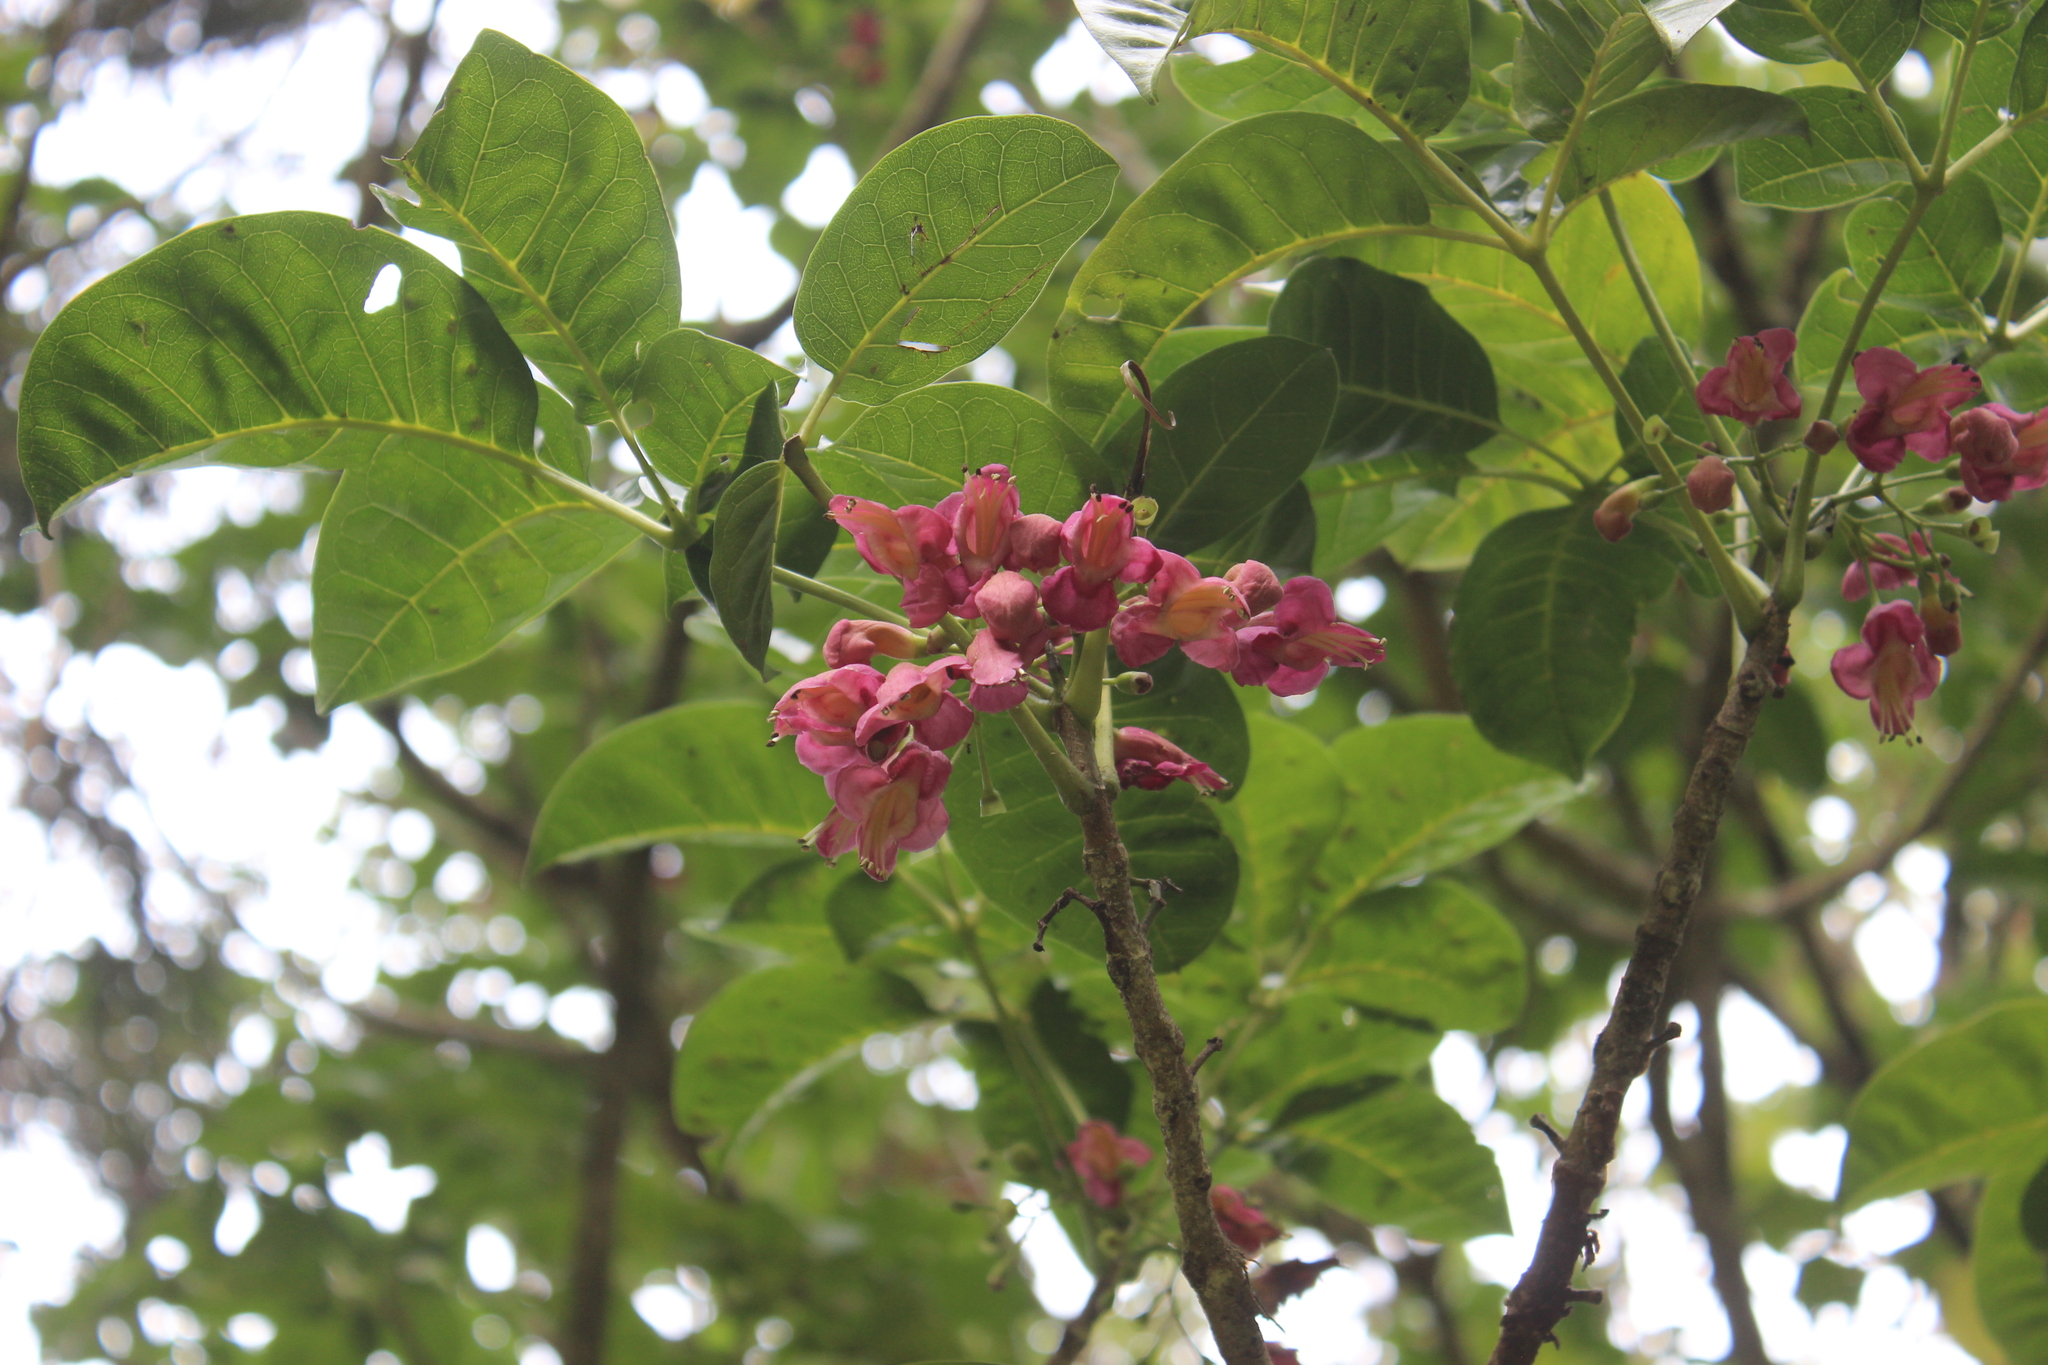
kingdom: Plantae
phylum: Tracheophyta
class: Magnoliopsida
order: Lamiales
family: Lamiaceae
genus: Vitex
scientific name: Vitex lucens
